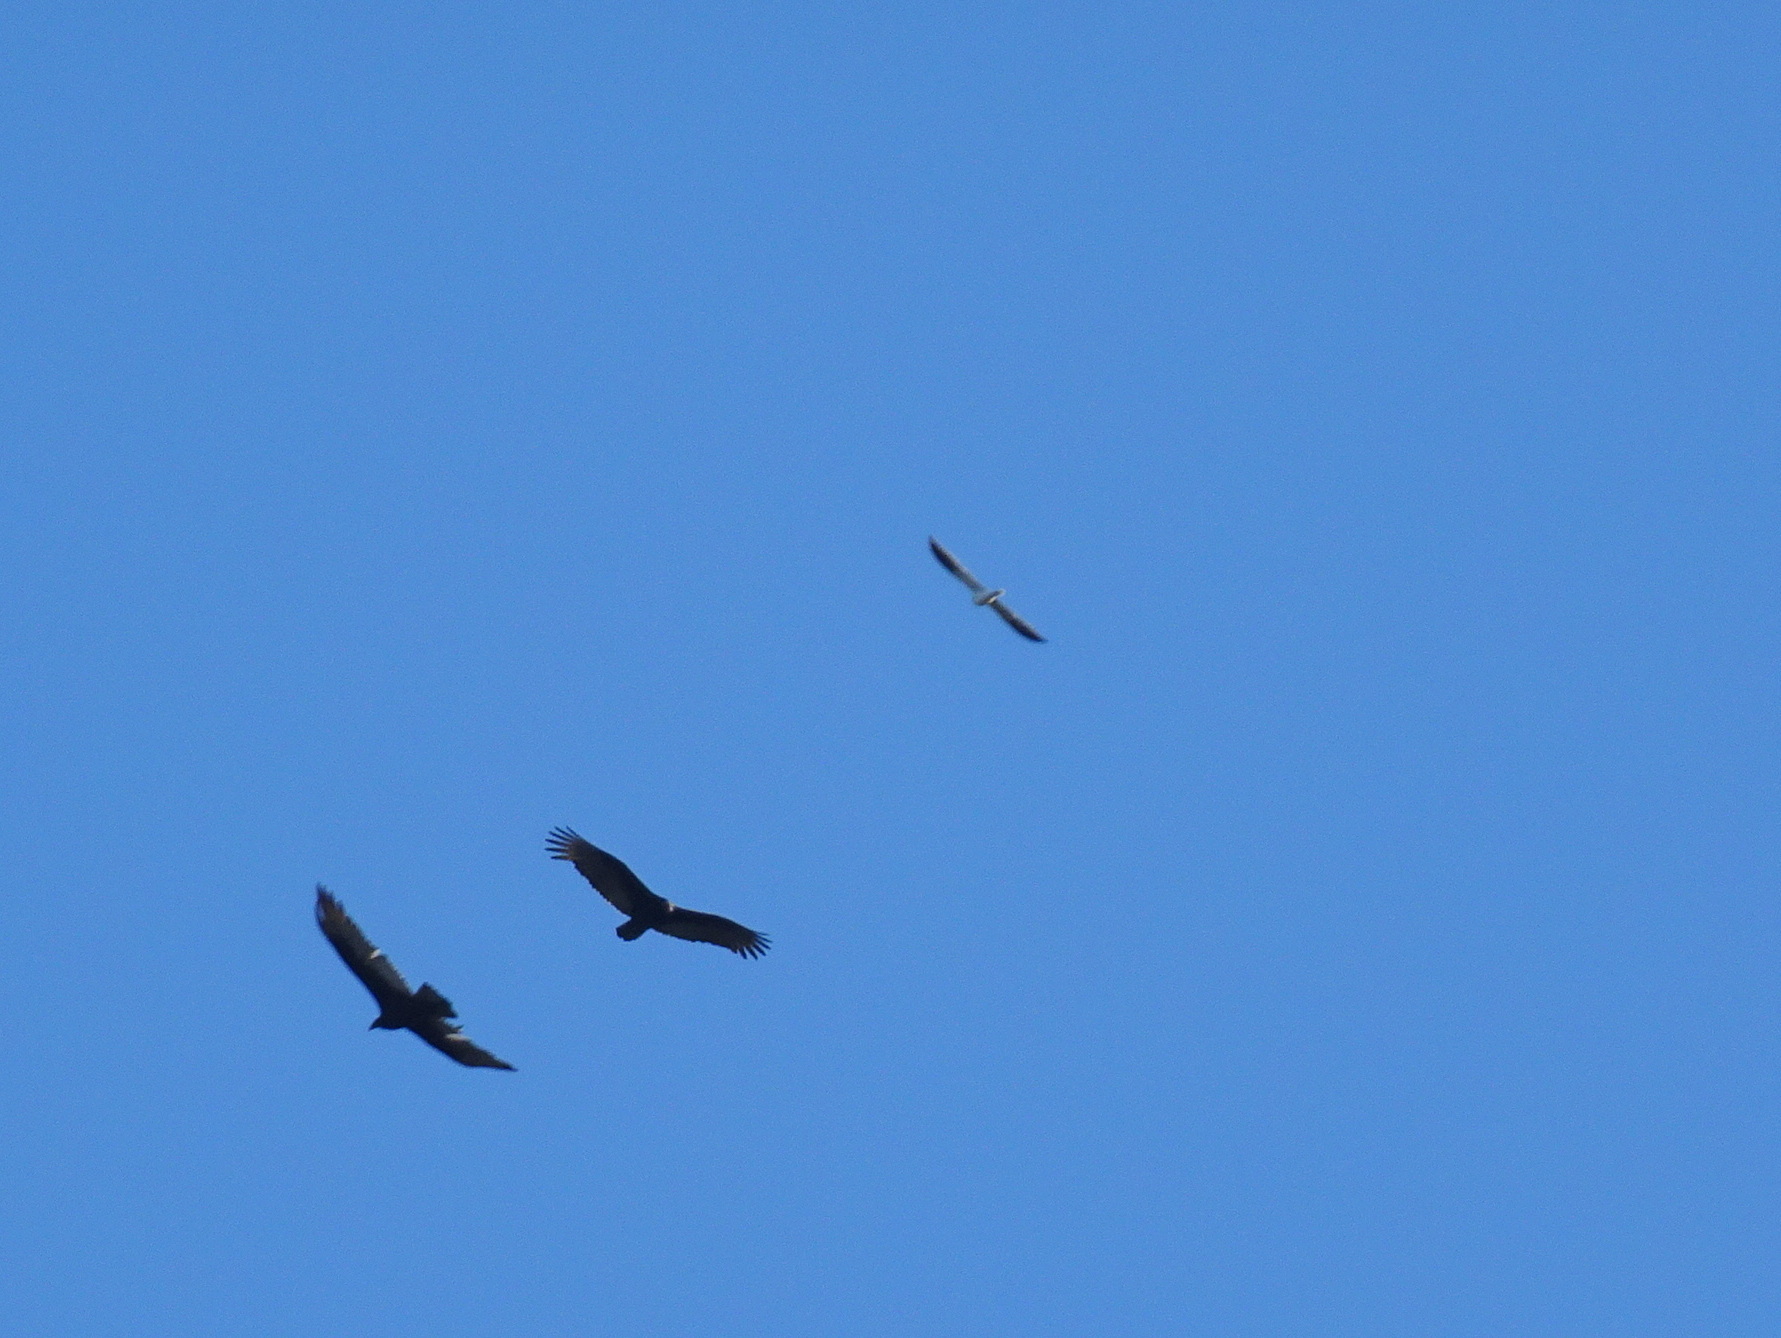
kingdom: Animalia
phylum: Chordata
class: Aves
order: Accipitriformes
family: Accipitridae
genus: Elanus
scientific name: Elanus leucurus
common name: White-tailed kite
